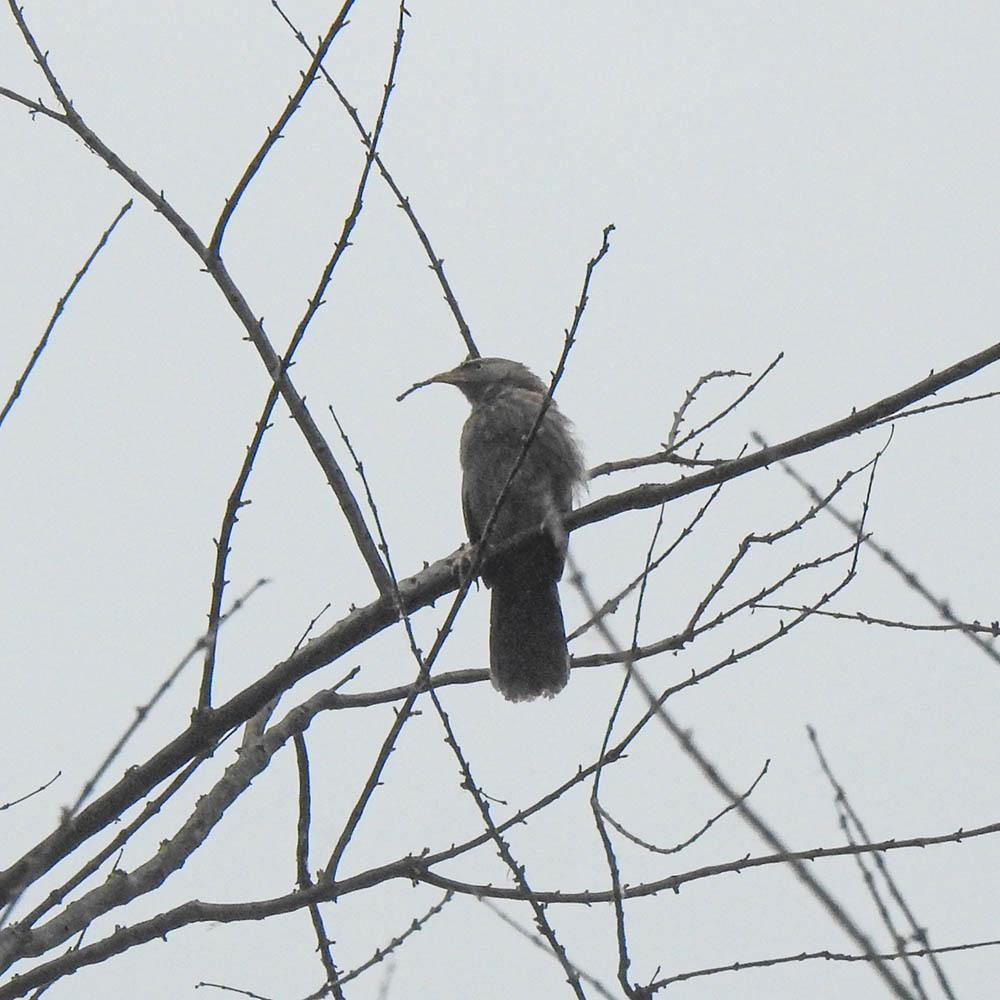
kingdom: Animalia
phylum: Chordata
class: Aves
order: Passeriformes
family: Leiothrichidae
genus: Turdoides
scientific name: Turdoides striata
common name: Jungle babbler
